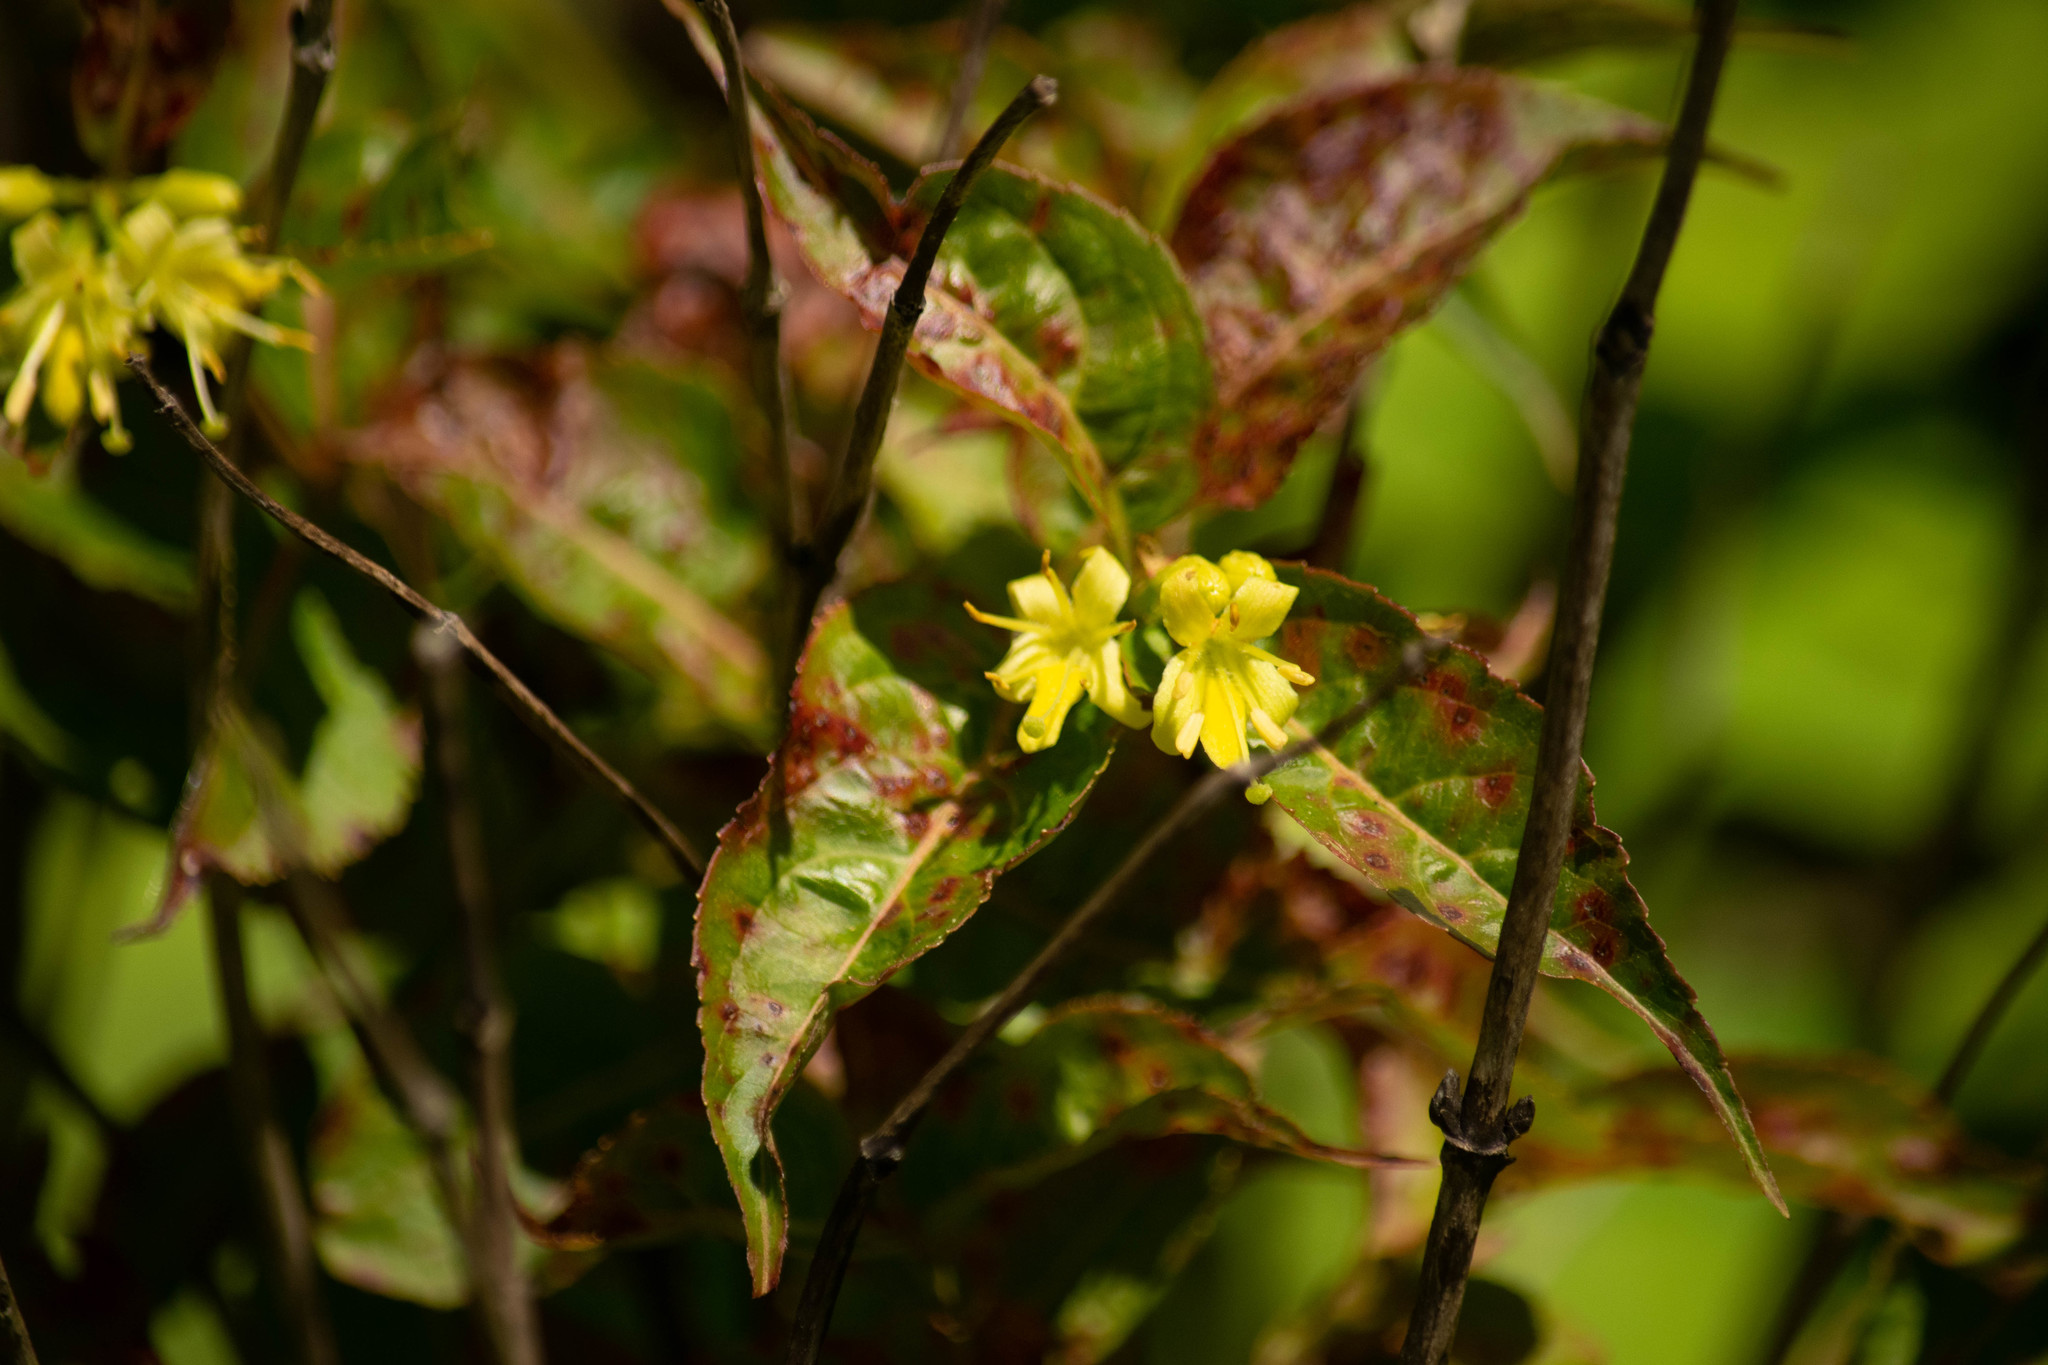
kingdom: Plantae
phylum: Tracheophyta
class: Magnoliopsida
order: Dipsacales
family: Caprifoliaceae
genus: Diervilla
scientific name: Diervilla lonicera
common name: Bush-honeysuckle
